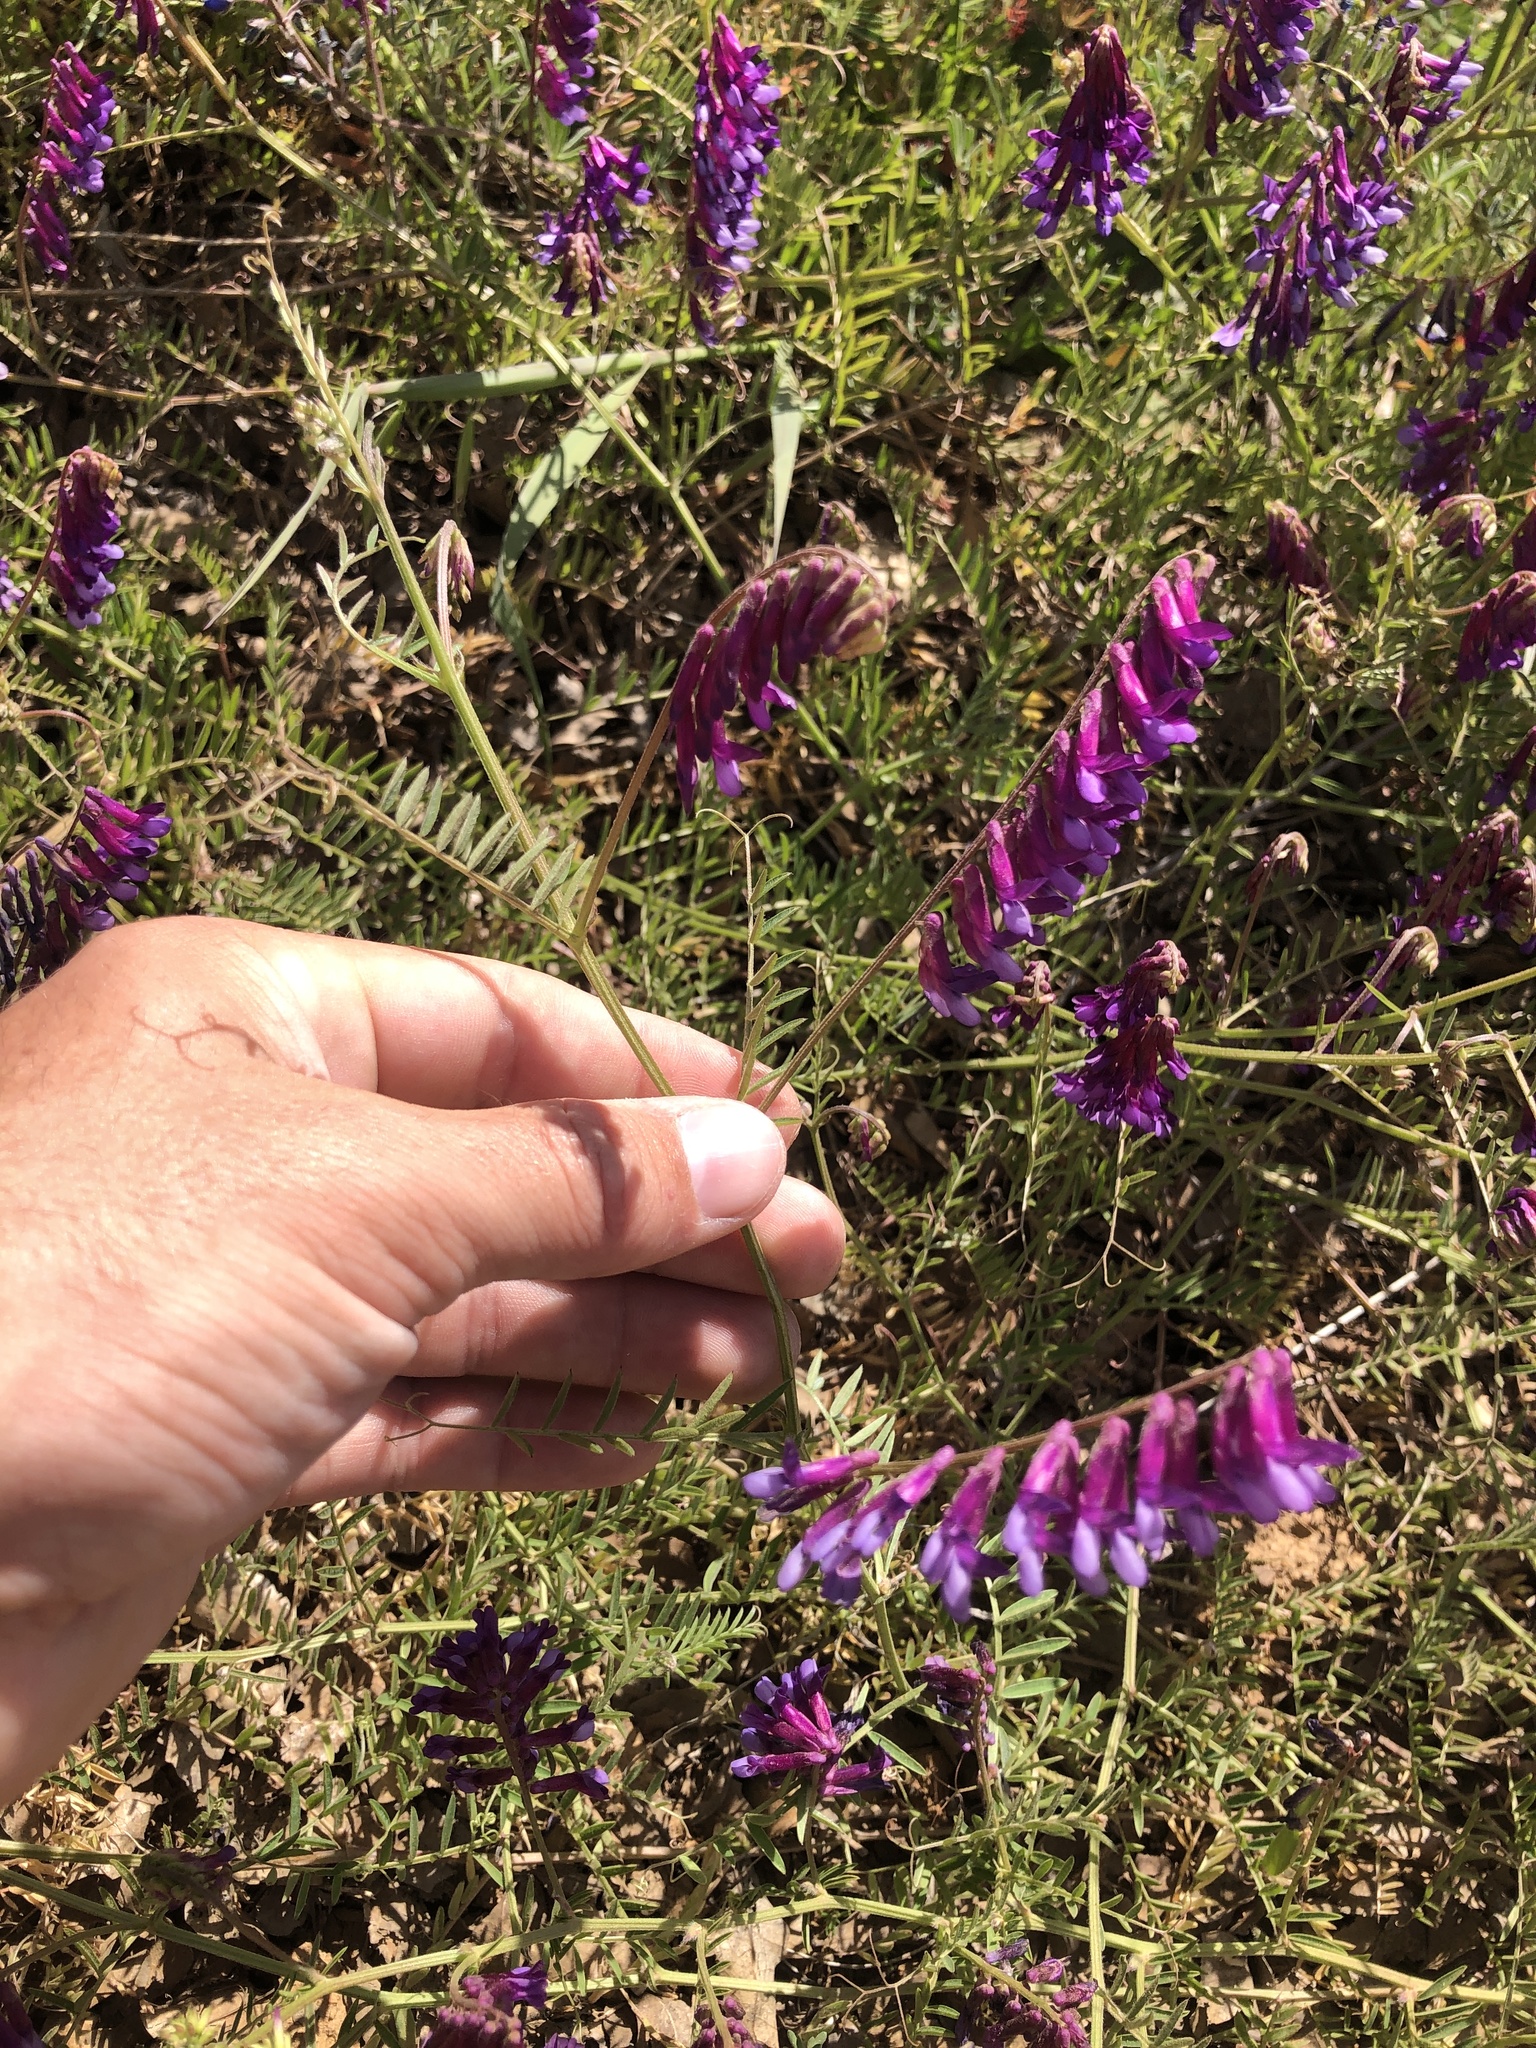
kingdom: Plantae
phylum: Tracheophyta
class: Magnoliopsida
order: Fabales
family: Fabaceae
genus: Vicia
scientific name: Vicia villosa
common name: Fodder vetch
